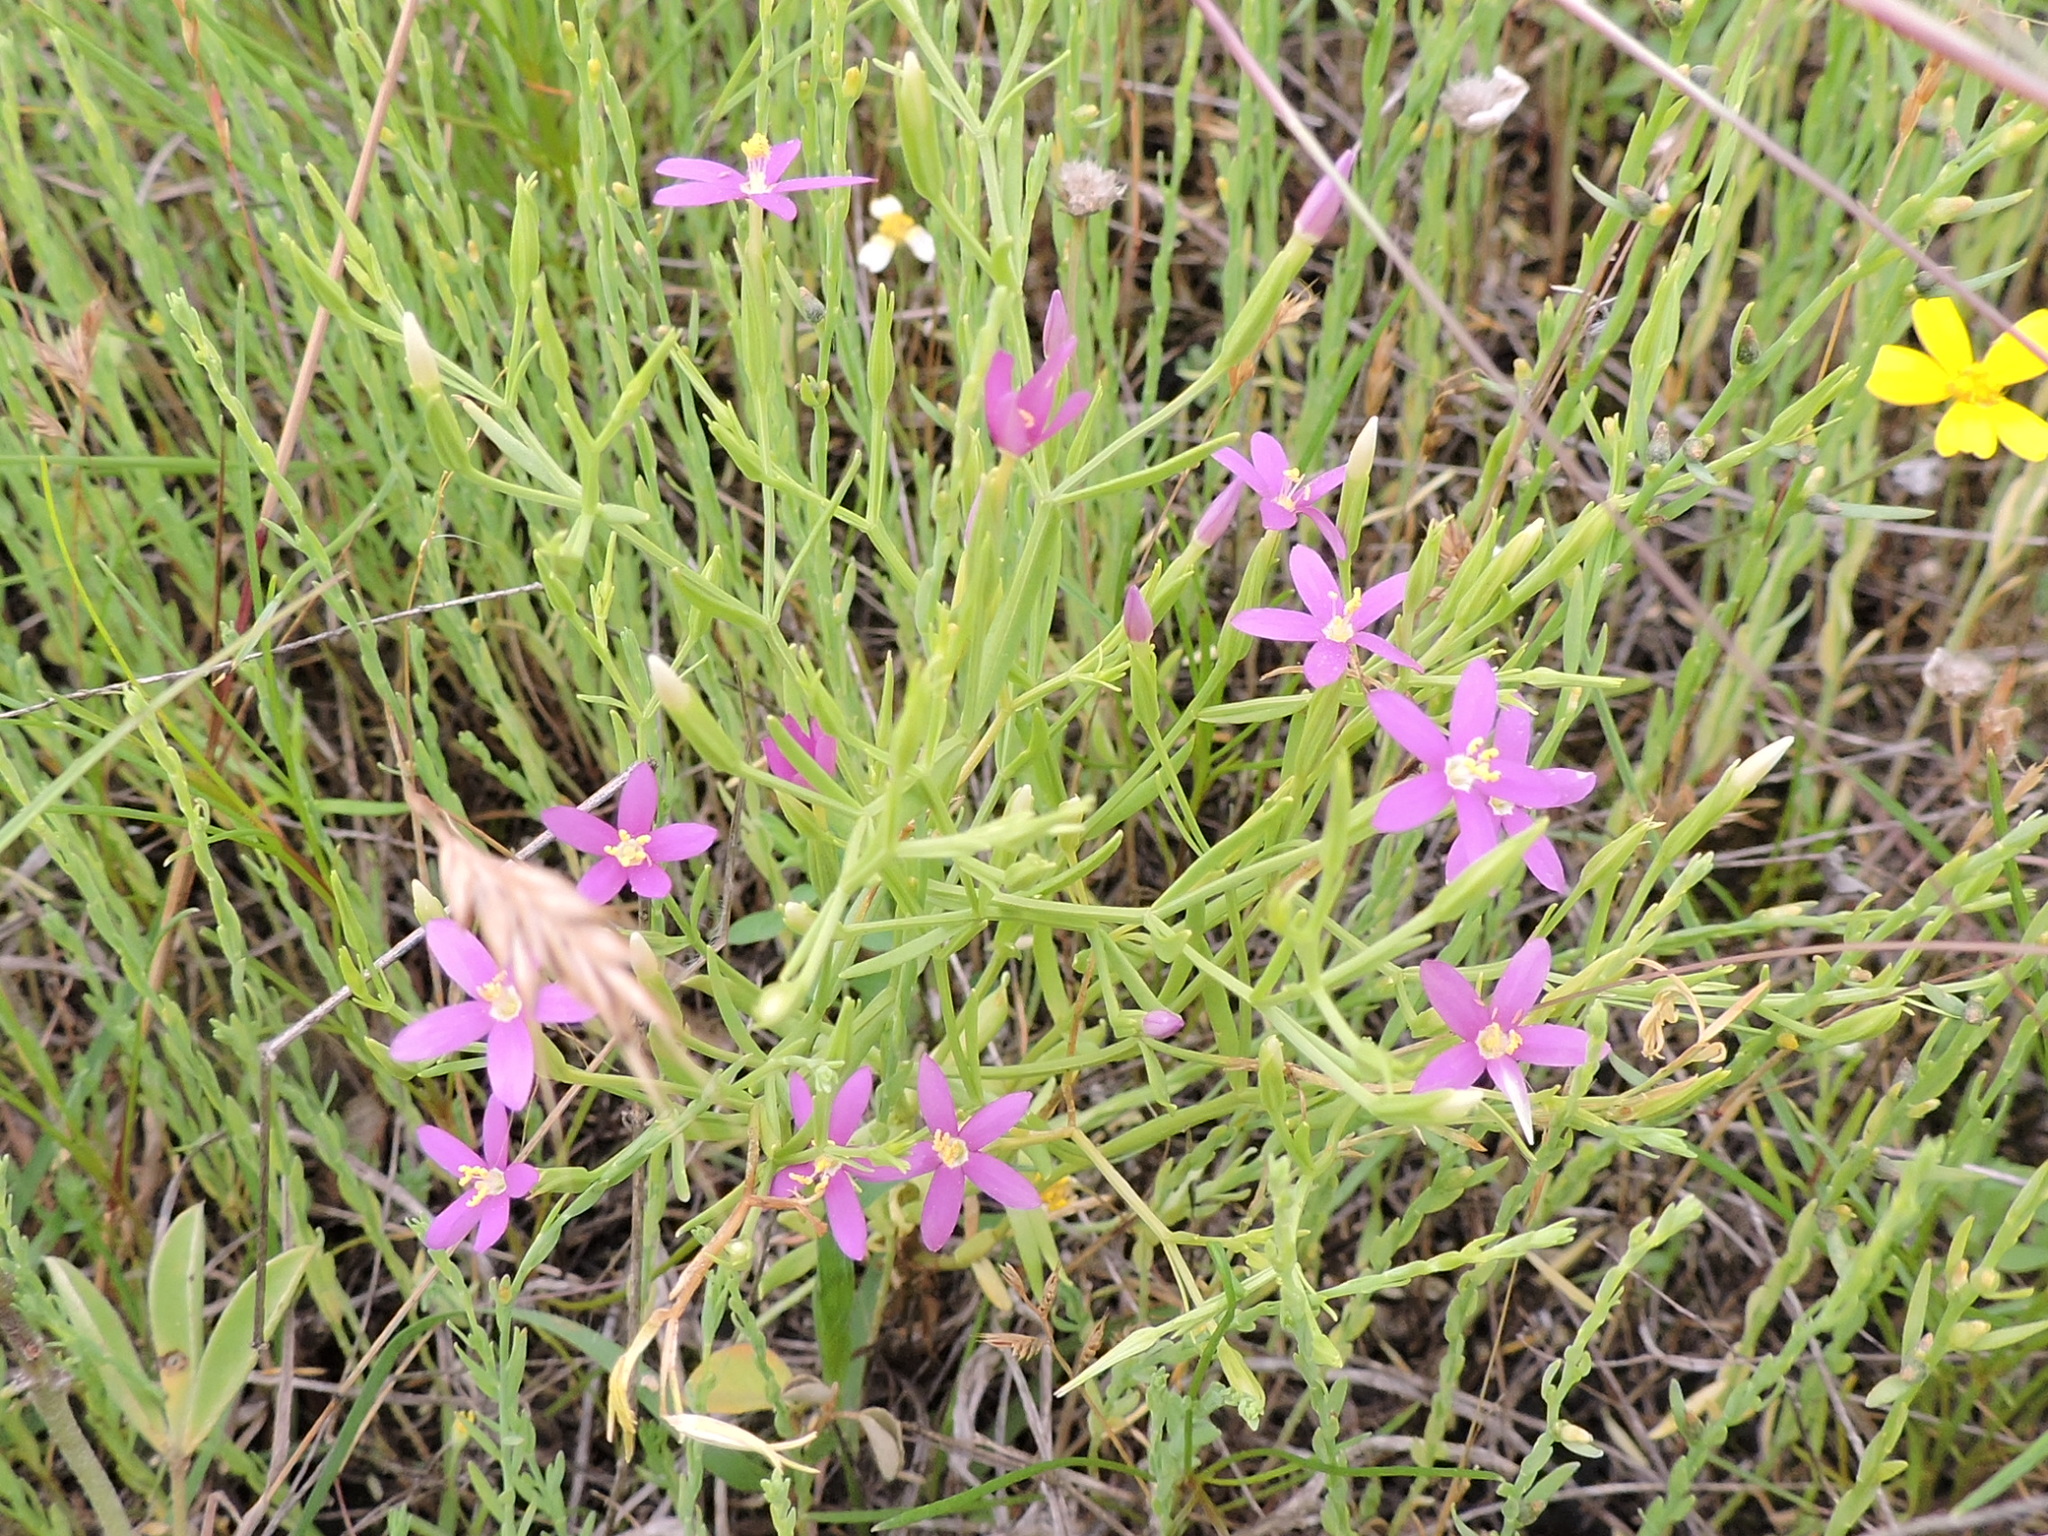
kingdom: Plantae
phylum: Tracheophyta
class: Magnoliopsida
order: Gentianales
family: Gentianaceae
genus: Zeltnera
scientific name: Zeltnera texensis
